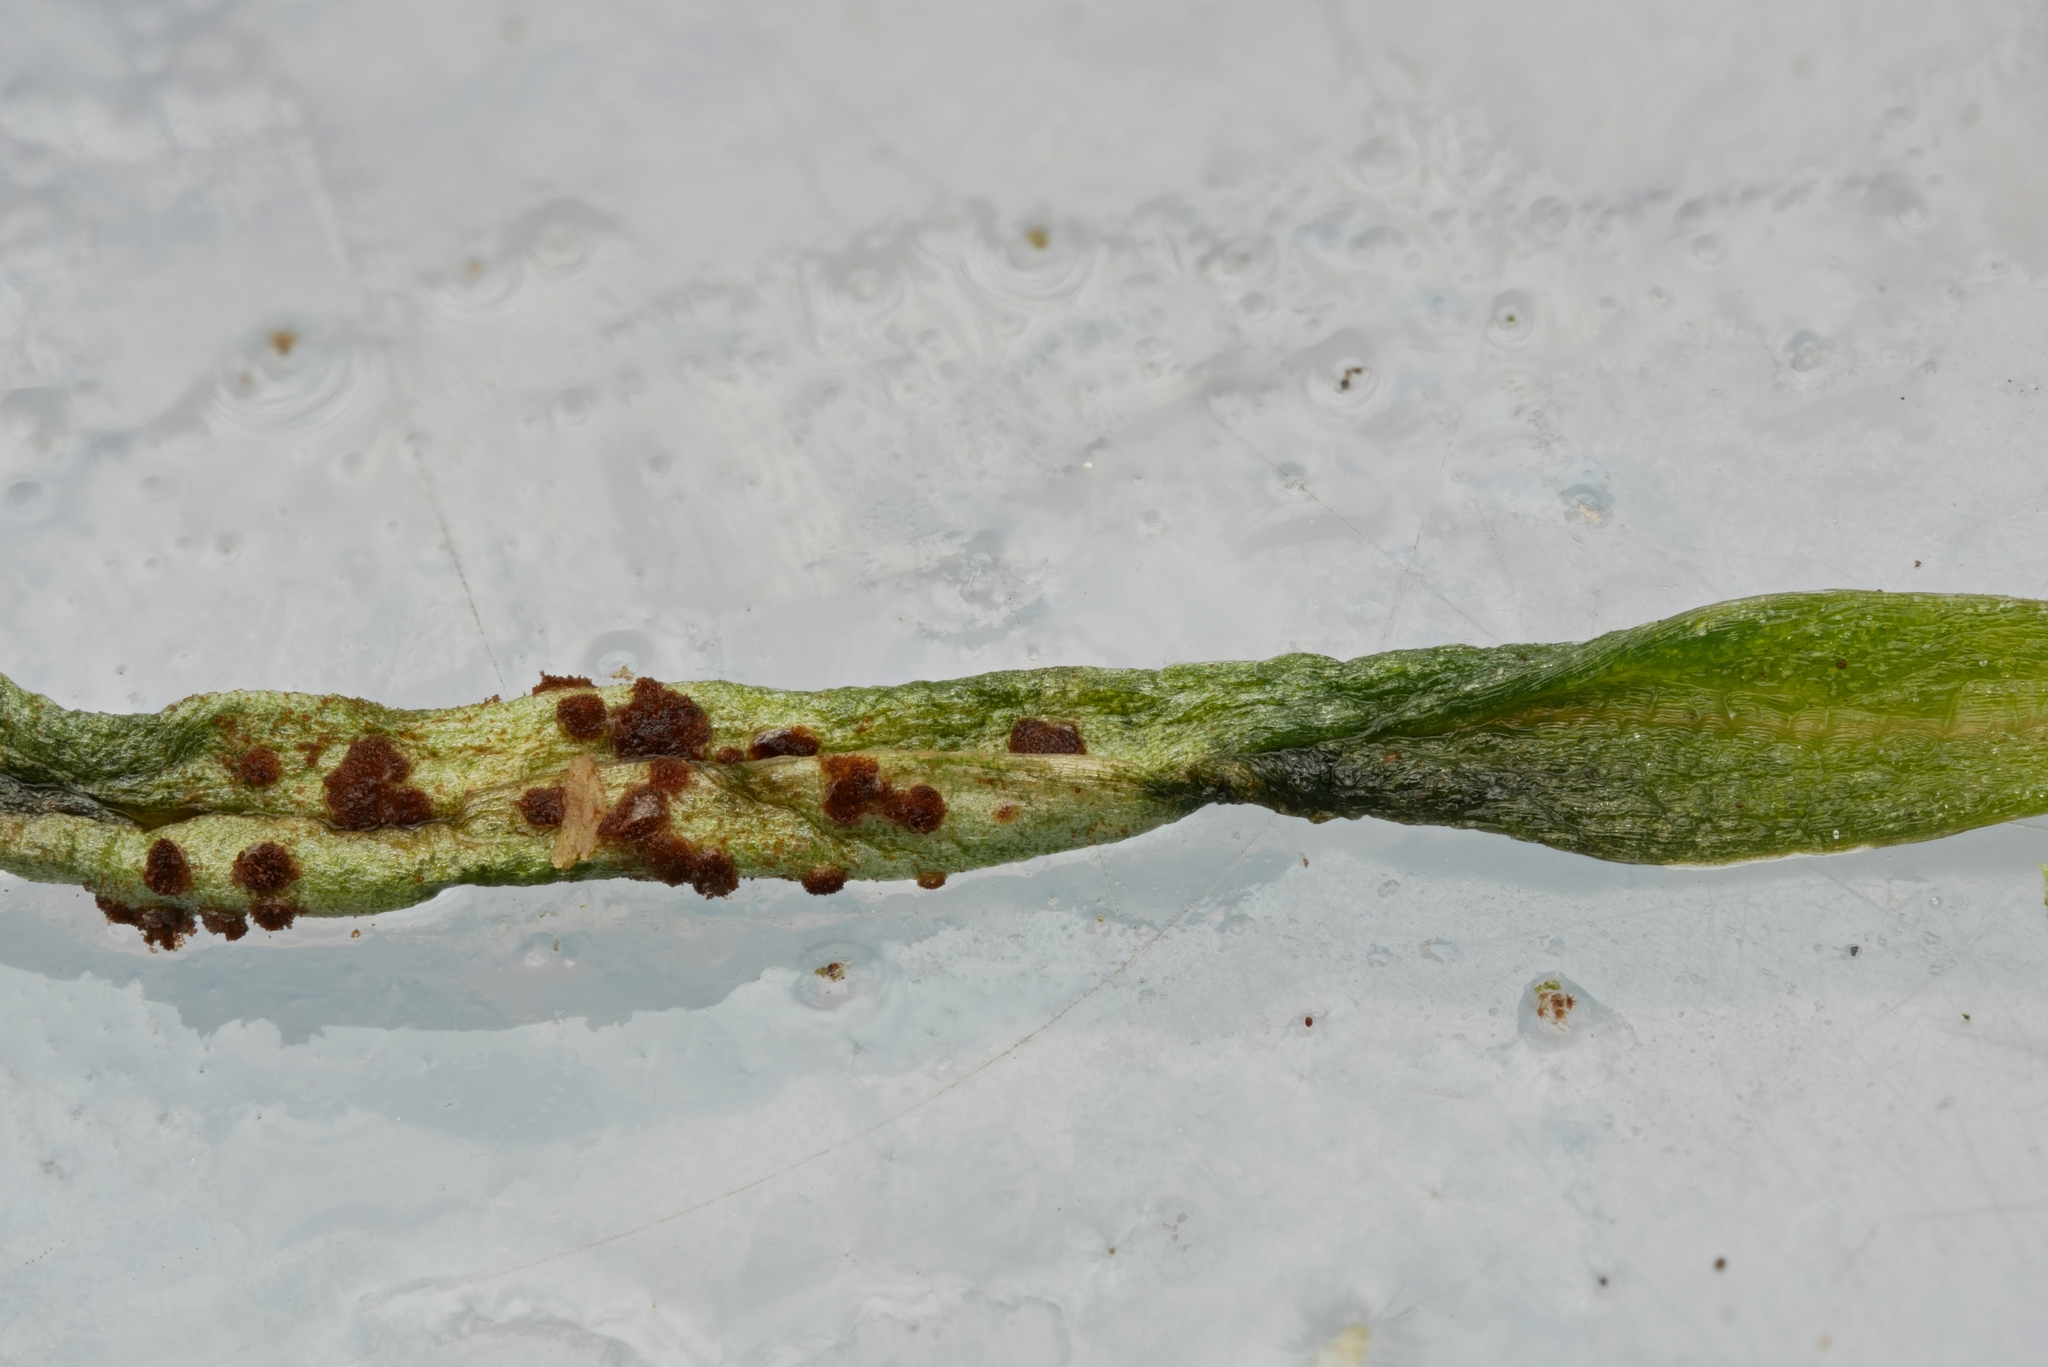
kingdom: Fungi
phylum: Basidiomycota
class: Pucciniomycetes
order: Pucciniales
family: Pucciniaceae
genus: Puccinia
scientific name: Puccinia mariae-wilsoniae
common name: Spring beauty rust
